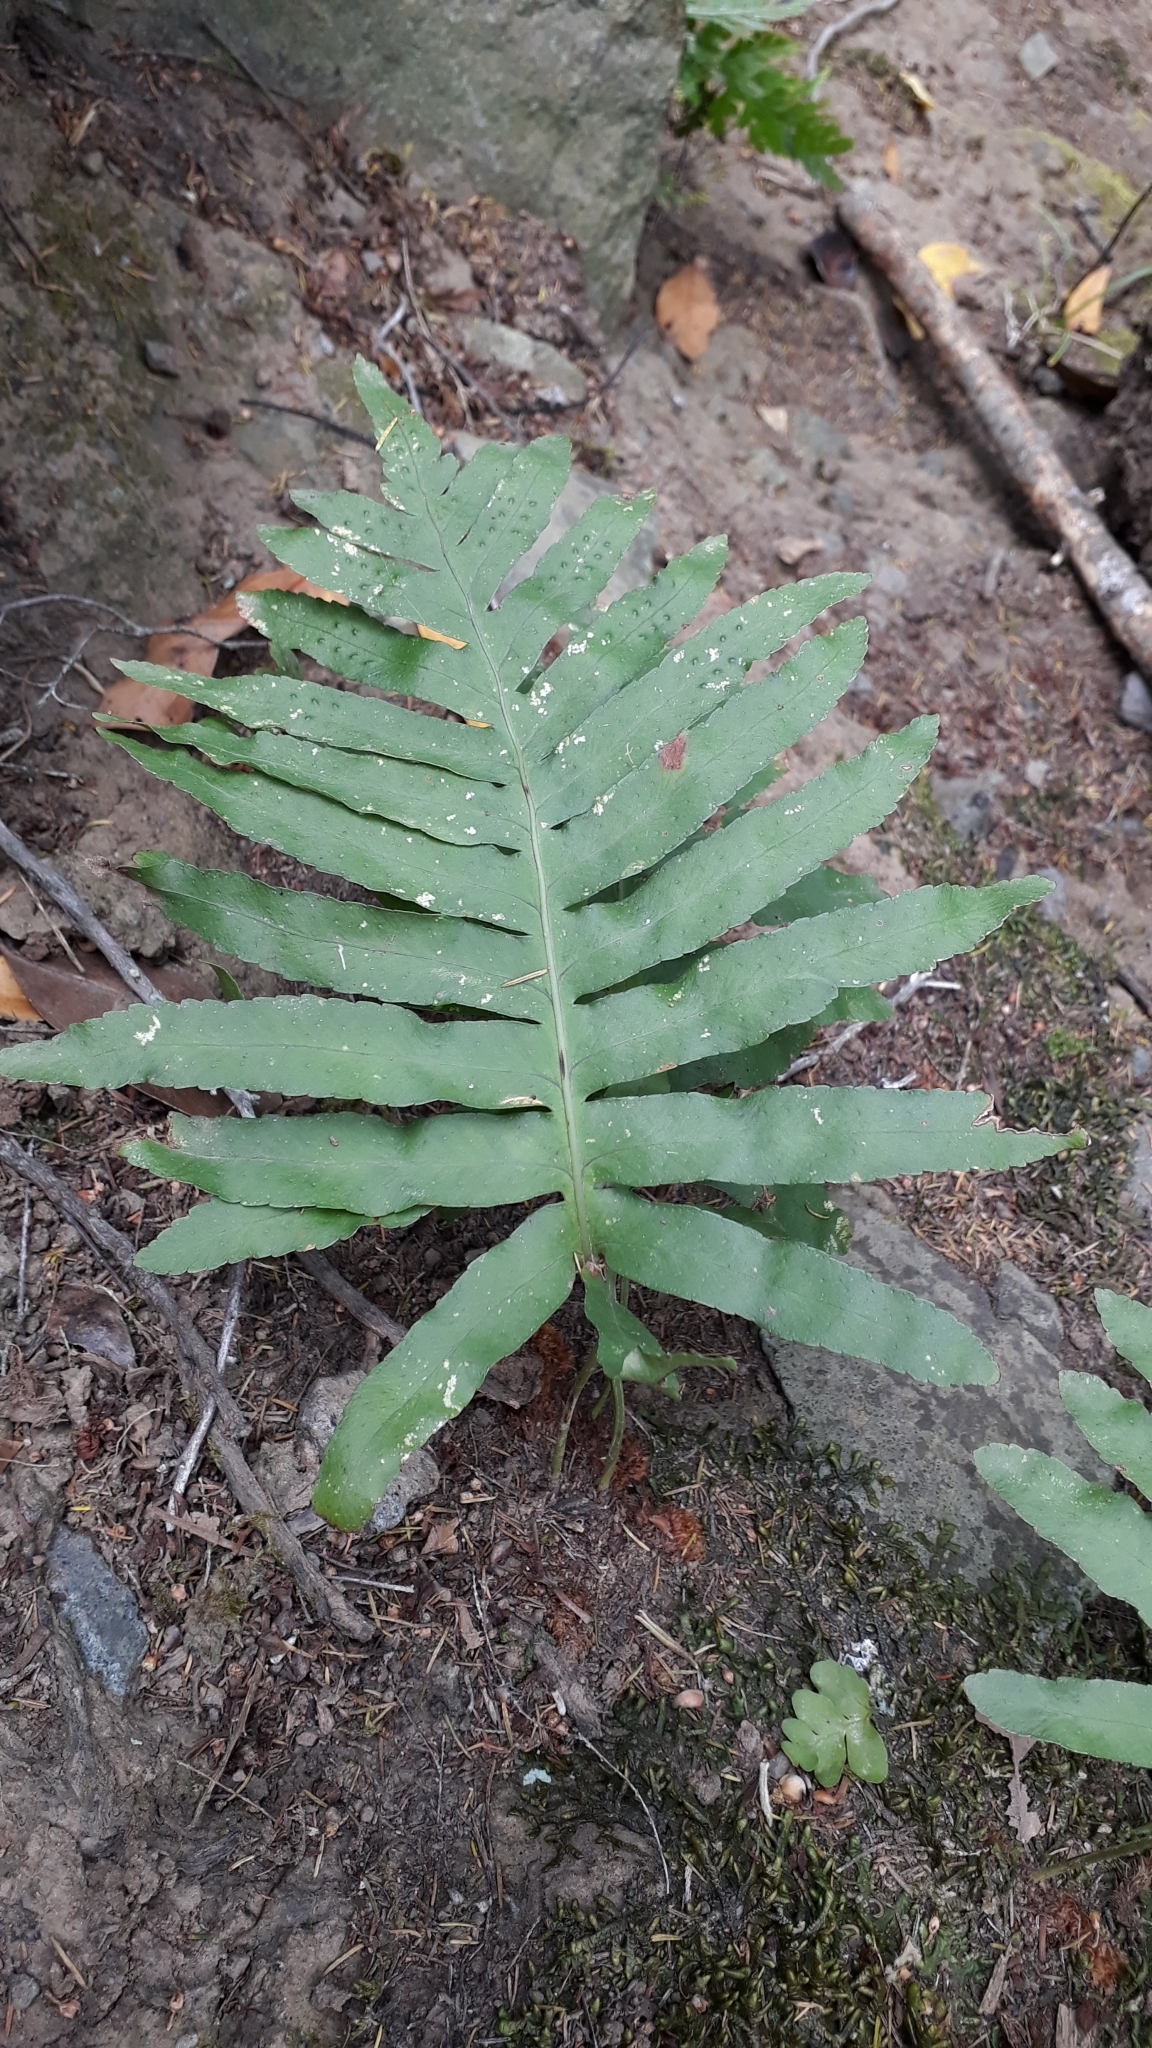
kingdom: Plantae
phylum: Tracheophyta
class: Polypodiopsida
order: Polypodiales
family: Polypodiaceae
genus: Polypodium
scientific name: Polypodium macaronesicum
